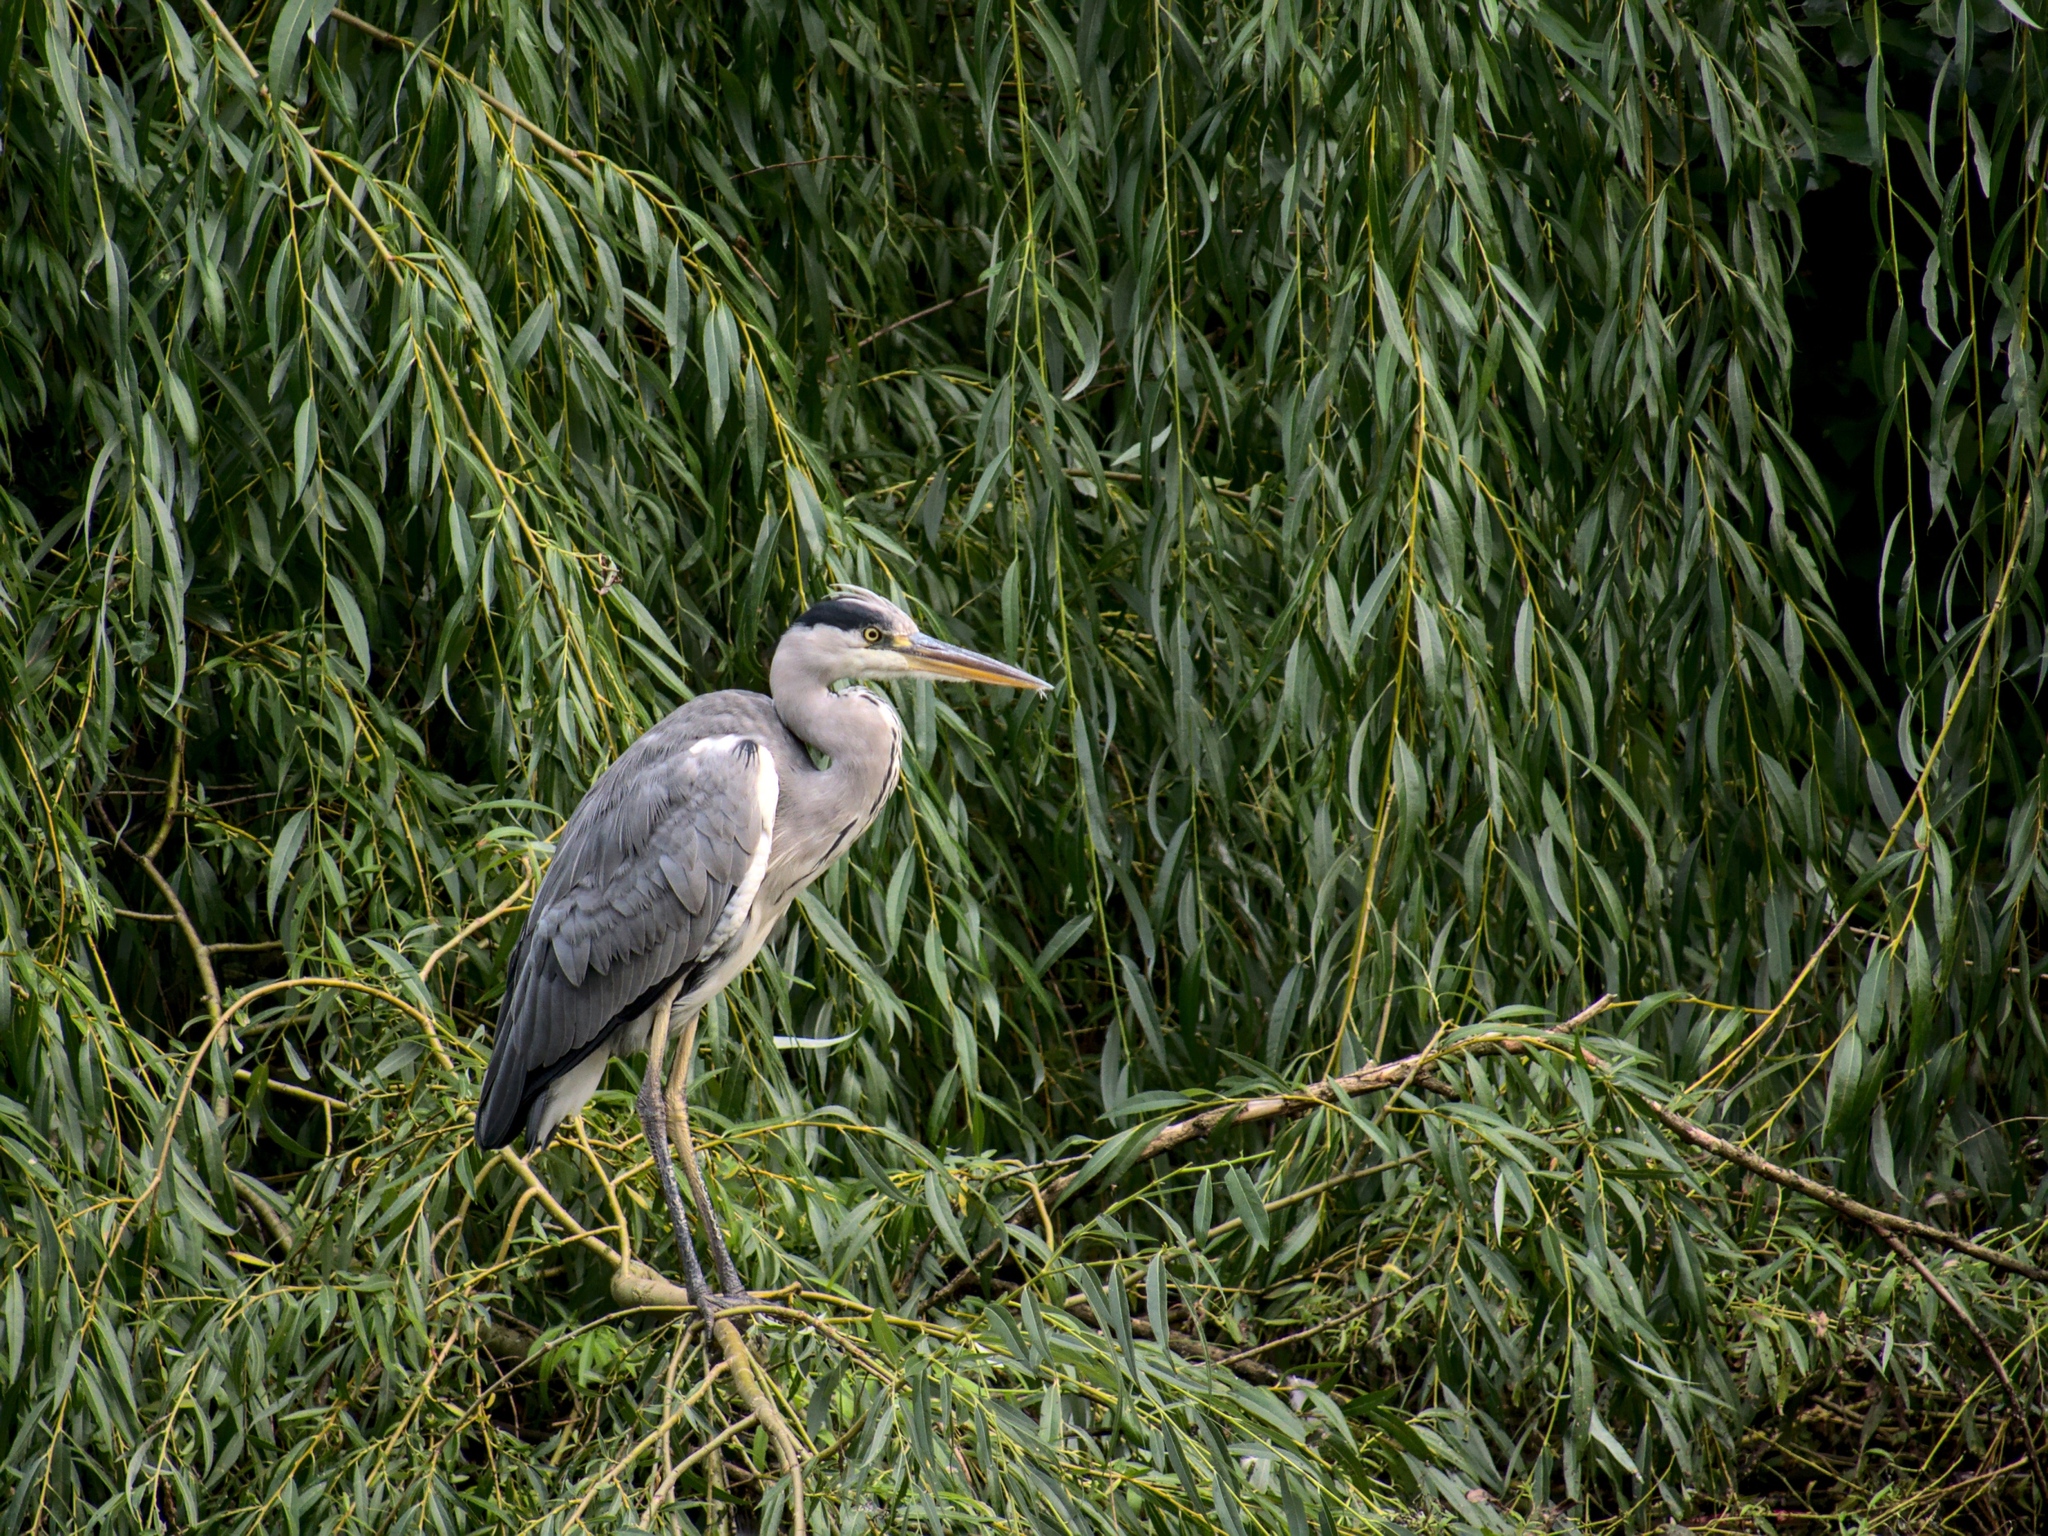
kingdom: Animalia
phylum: Chordata
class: Aves
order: Pelecaniformes
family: Ardeidae
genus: Ardea
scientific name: Ardea cinerea
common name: Grey heron
